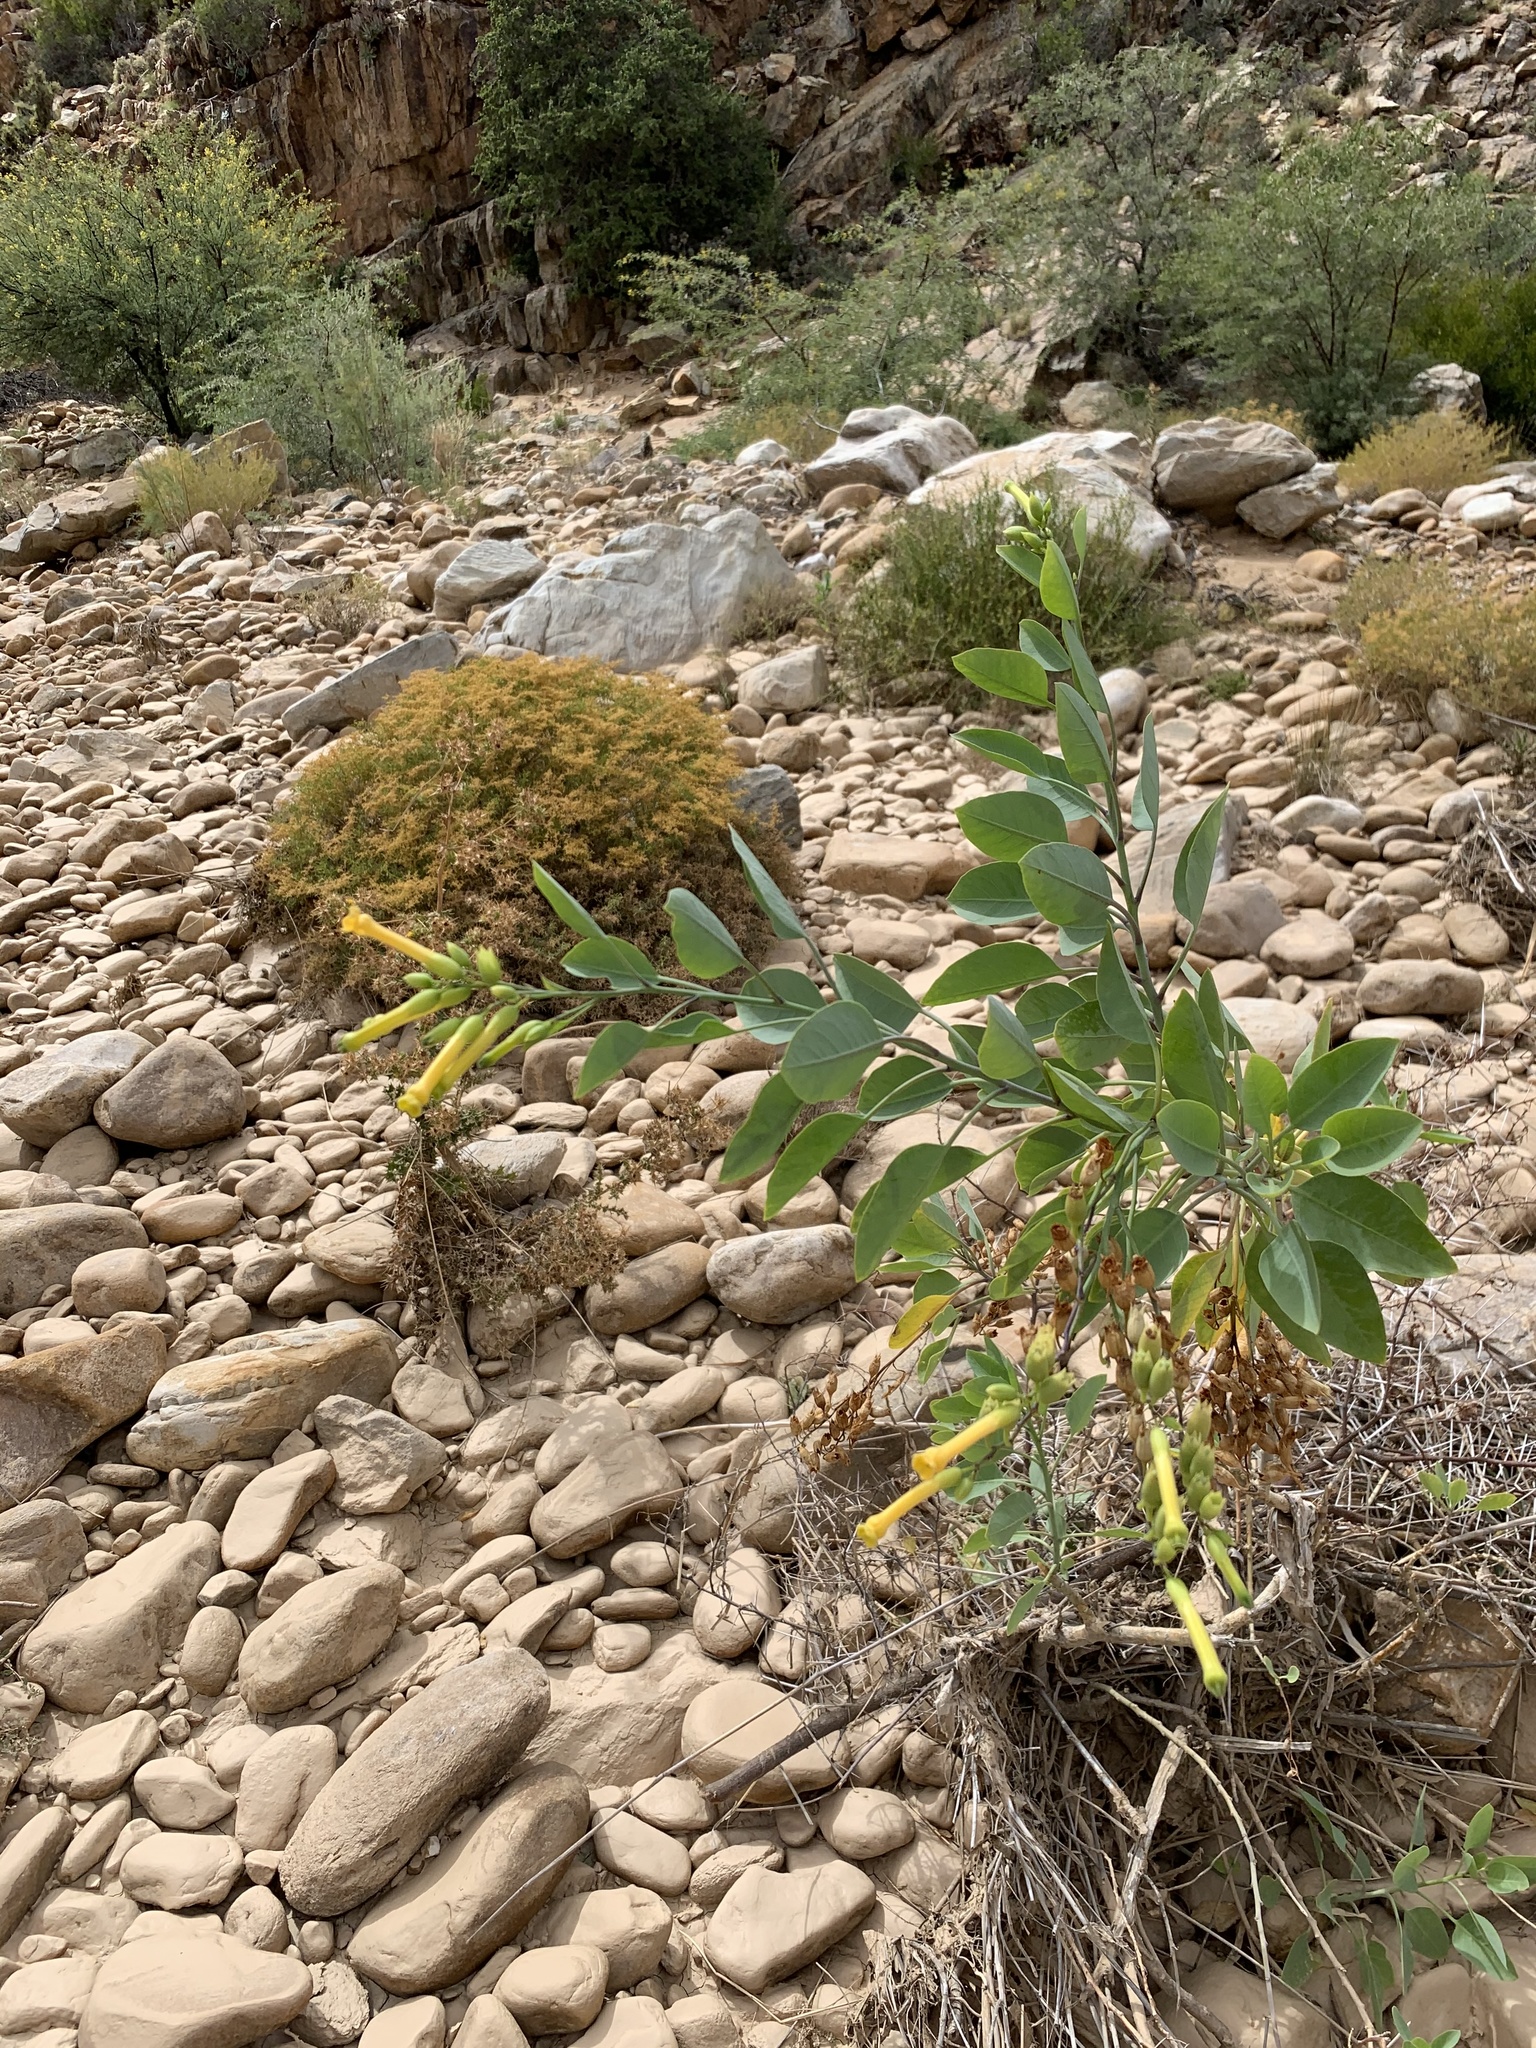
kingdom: Plantae
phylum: Tracheophyta
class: Magnoliopsida
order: Solanales
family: Solanaceae
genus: Nicotiana
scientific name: Nicotiana glauca
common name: Tree tobacco
